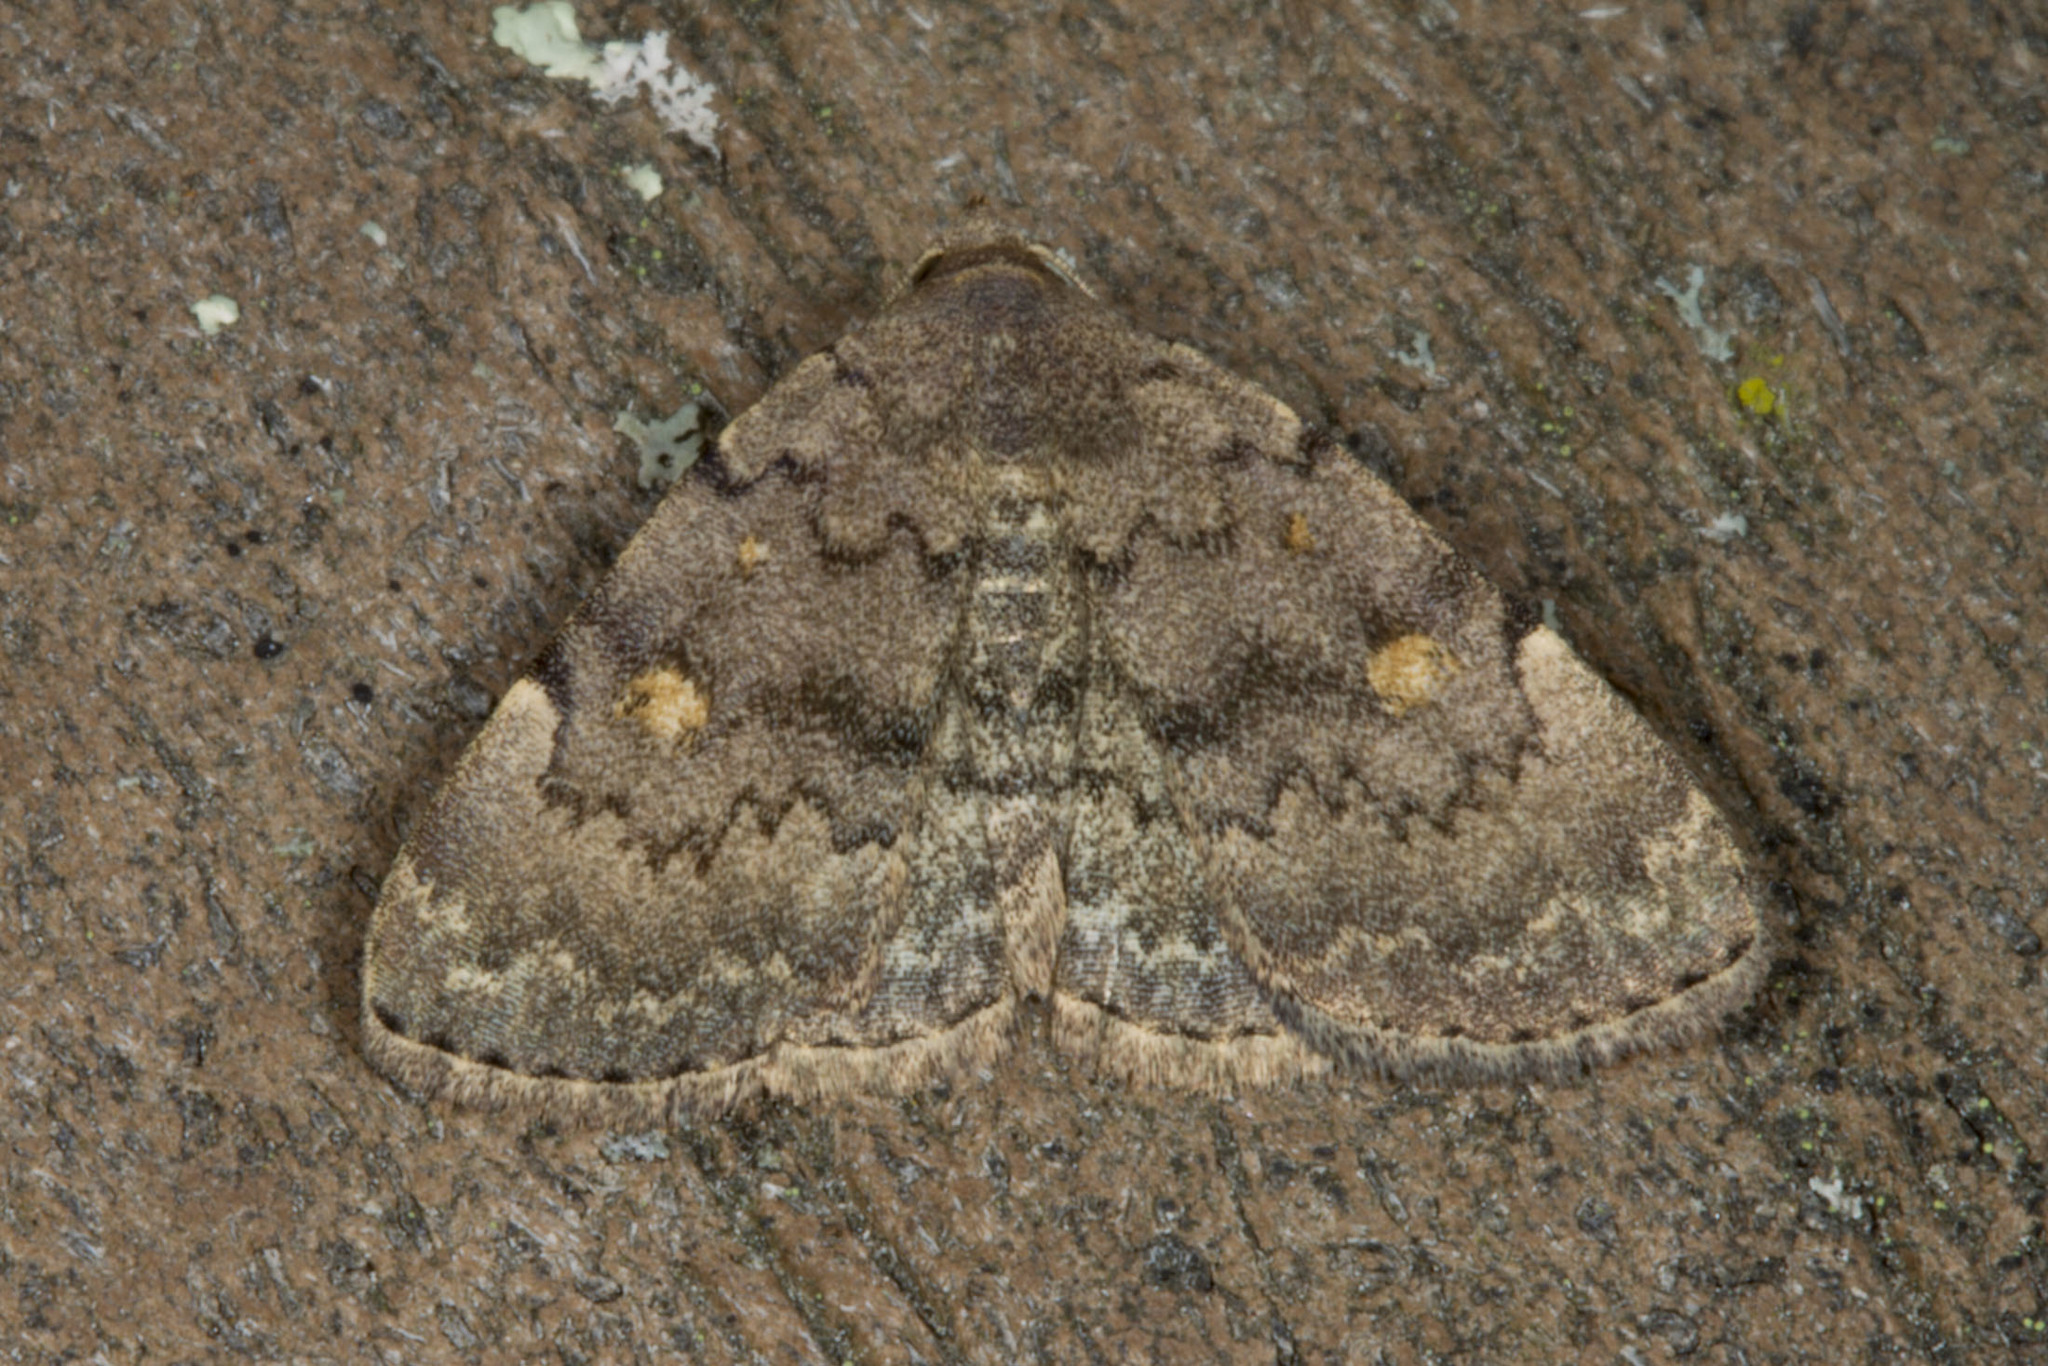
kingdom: Animalia
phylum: Arthropoda
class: Insecta
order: Lepidoptera
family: Erebidae
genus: Idia
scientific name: Idia aemula
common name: Common idia moth
